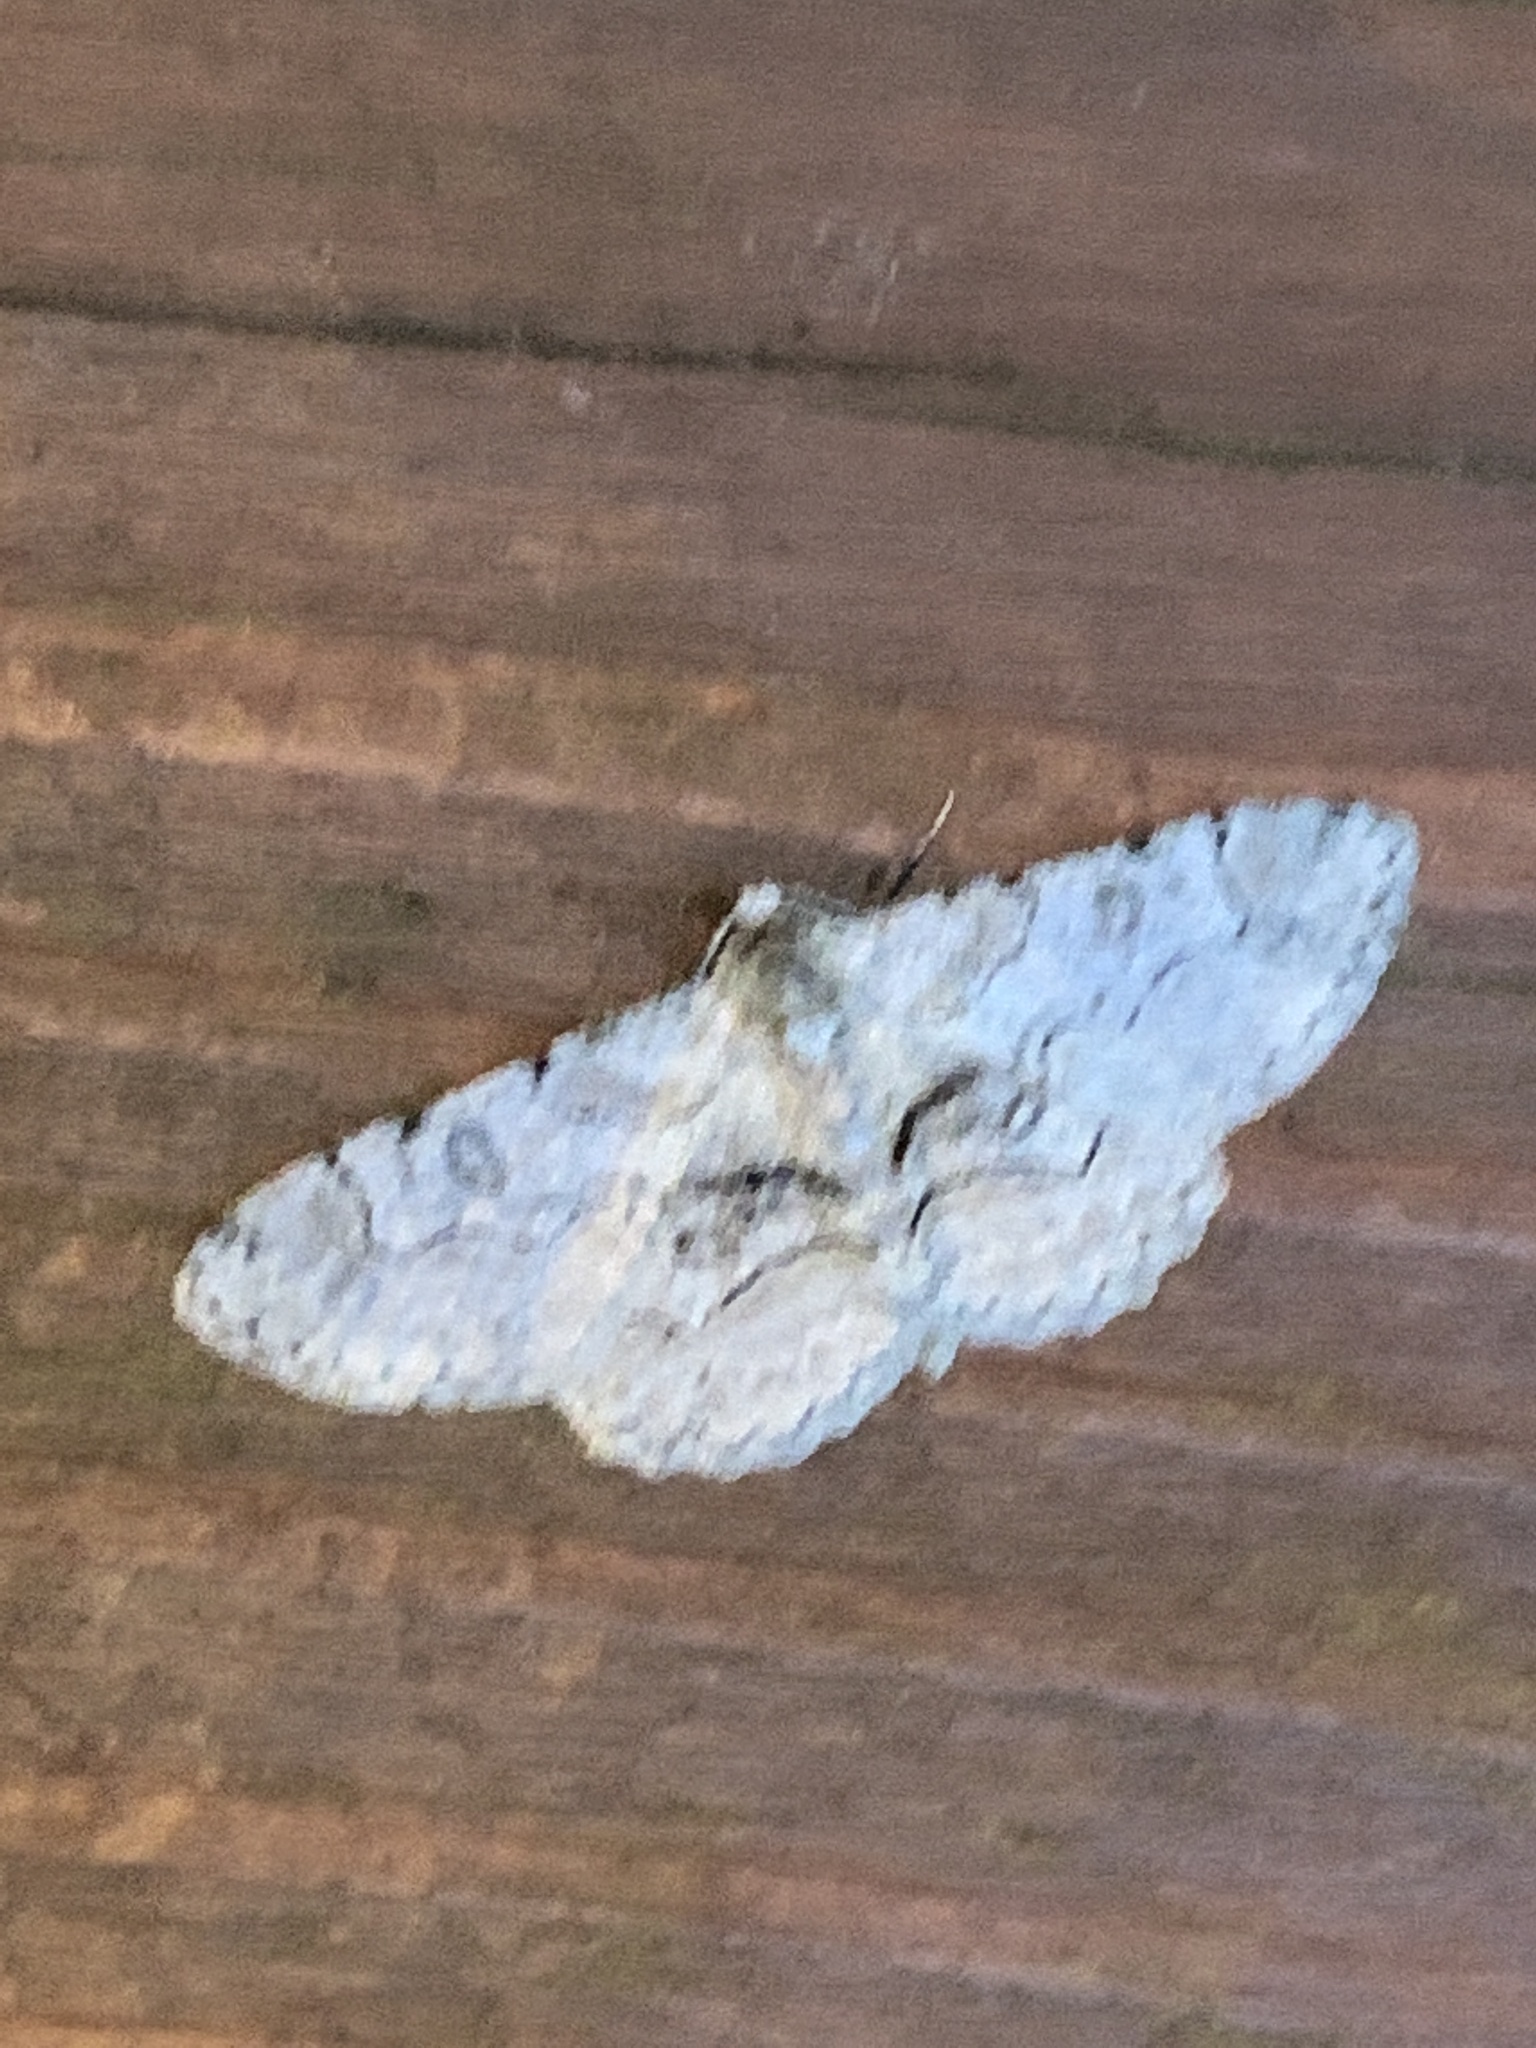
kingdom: Animalia
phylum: Arthropoda
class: Insecta
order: Lepidoptera
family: Geometridae
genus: Iridopsis
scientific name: Iridopsis larvaria
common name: Bent-line gray
